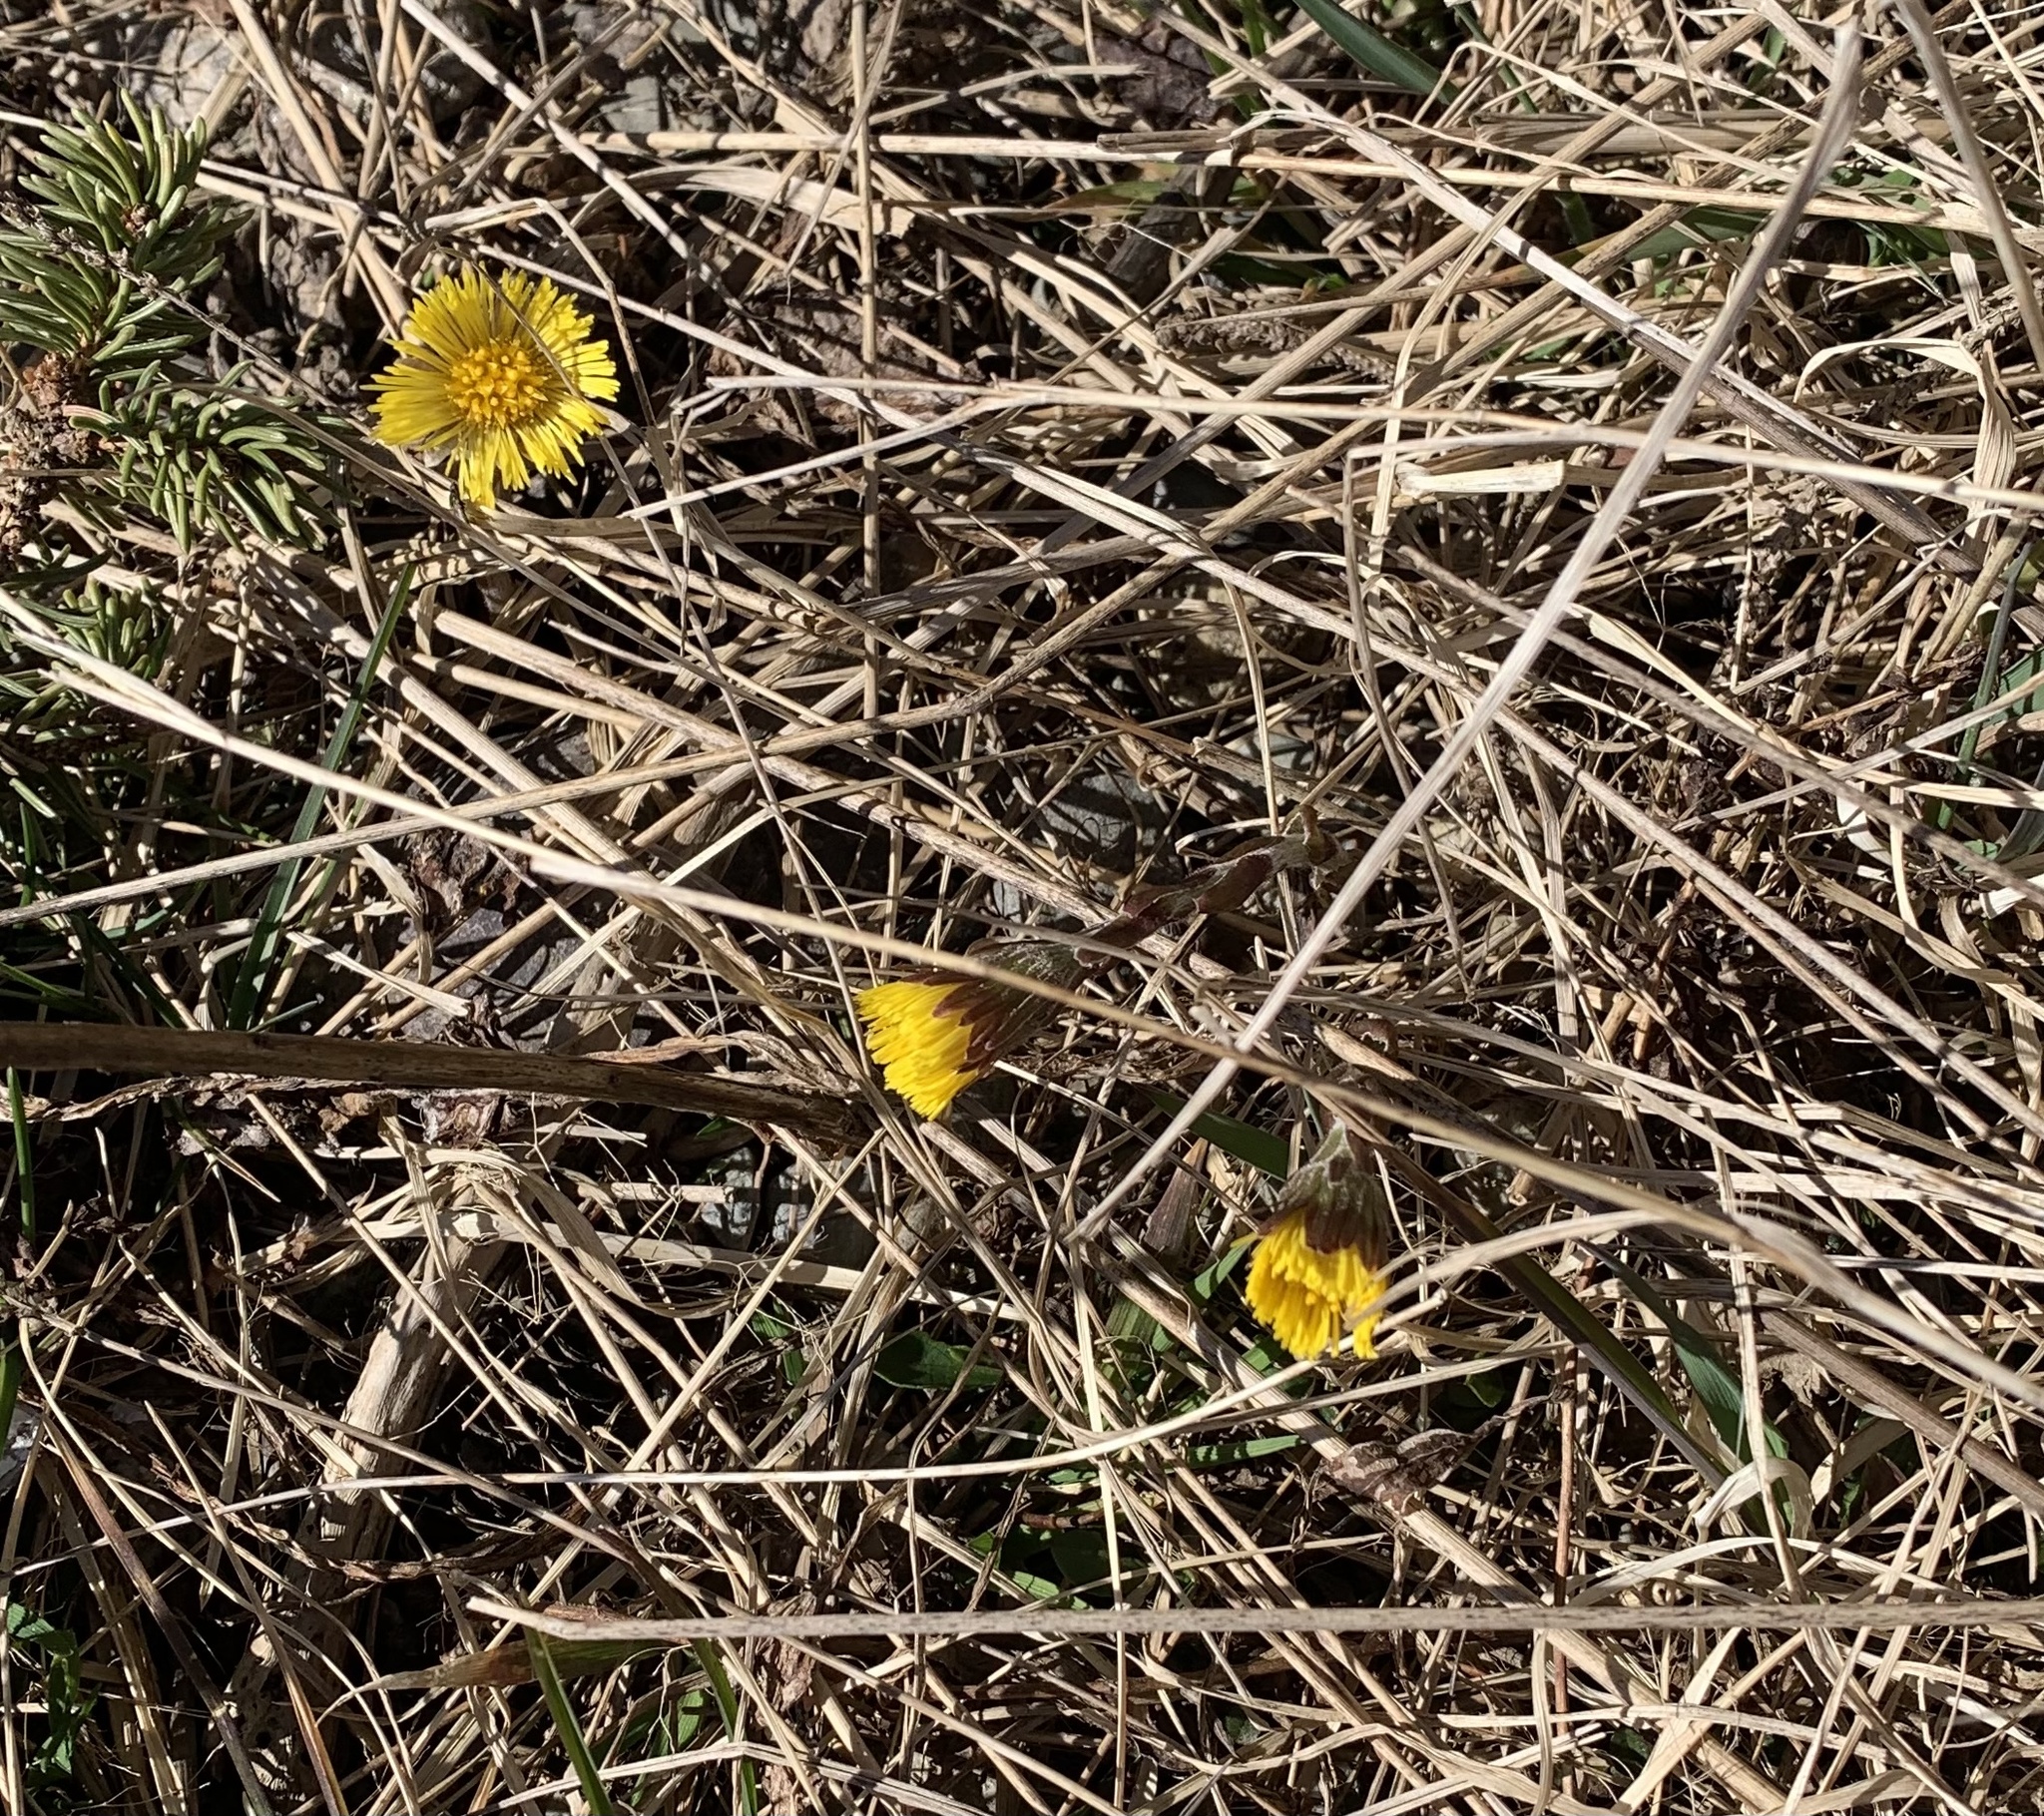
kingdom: Plantae
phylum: Tracheophyta
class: Magnoliopsida
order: Asterales
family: Asteraceae
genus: Tussilago
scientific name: Tussilago farfara
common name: Coltsfoot
